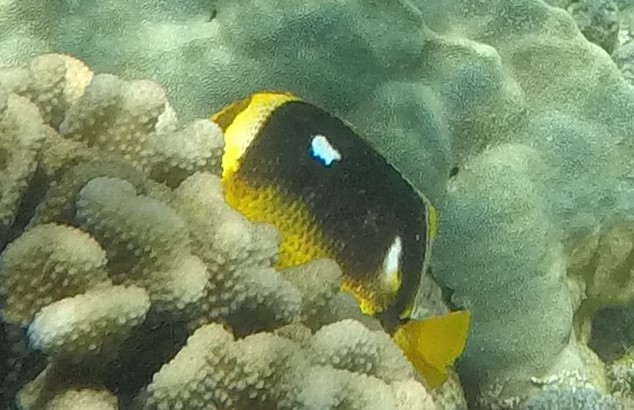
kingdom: Animalia
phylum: Chordata
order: Perciformes
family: Chaetodontidae
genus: Chaetodon
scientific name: Chaetodon quadrimaculatus
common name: Fourspot butterflyfish
